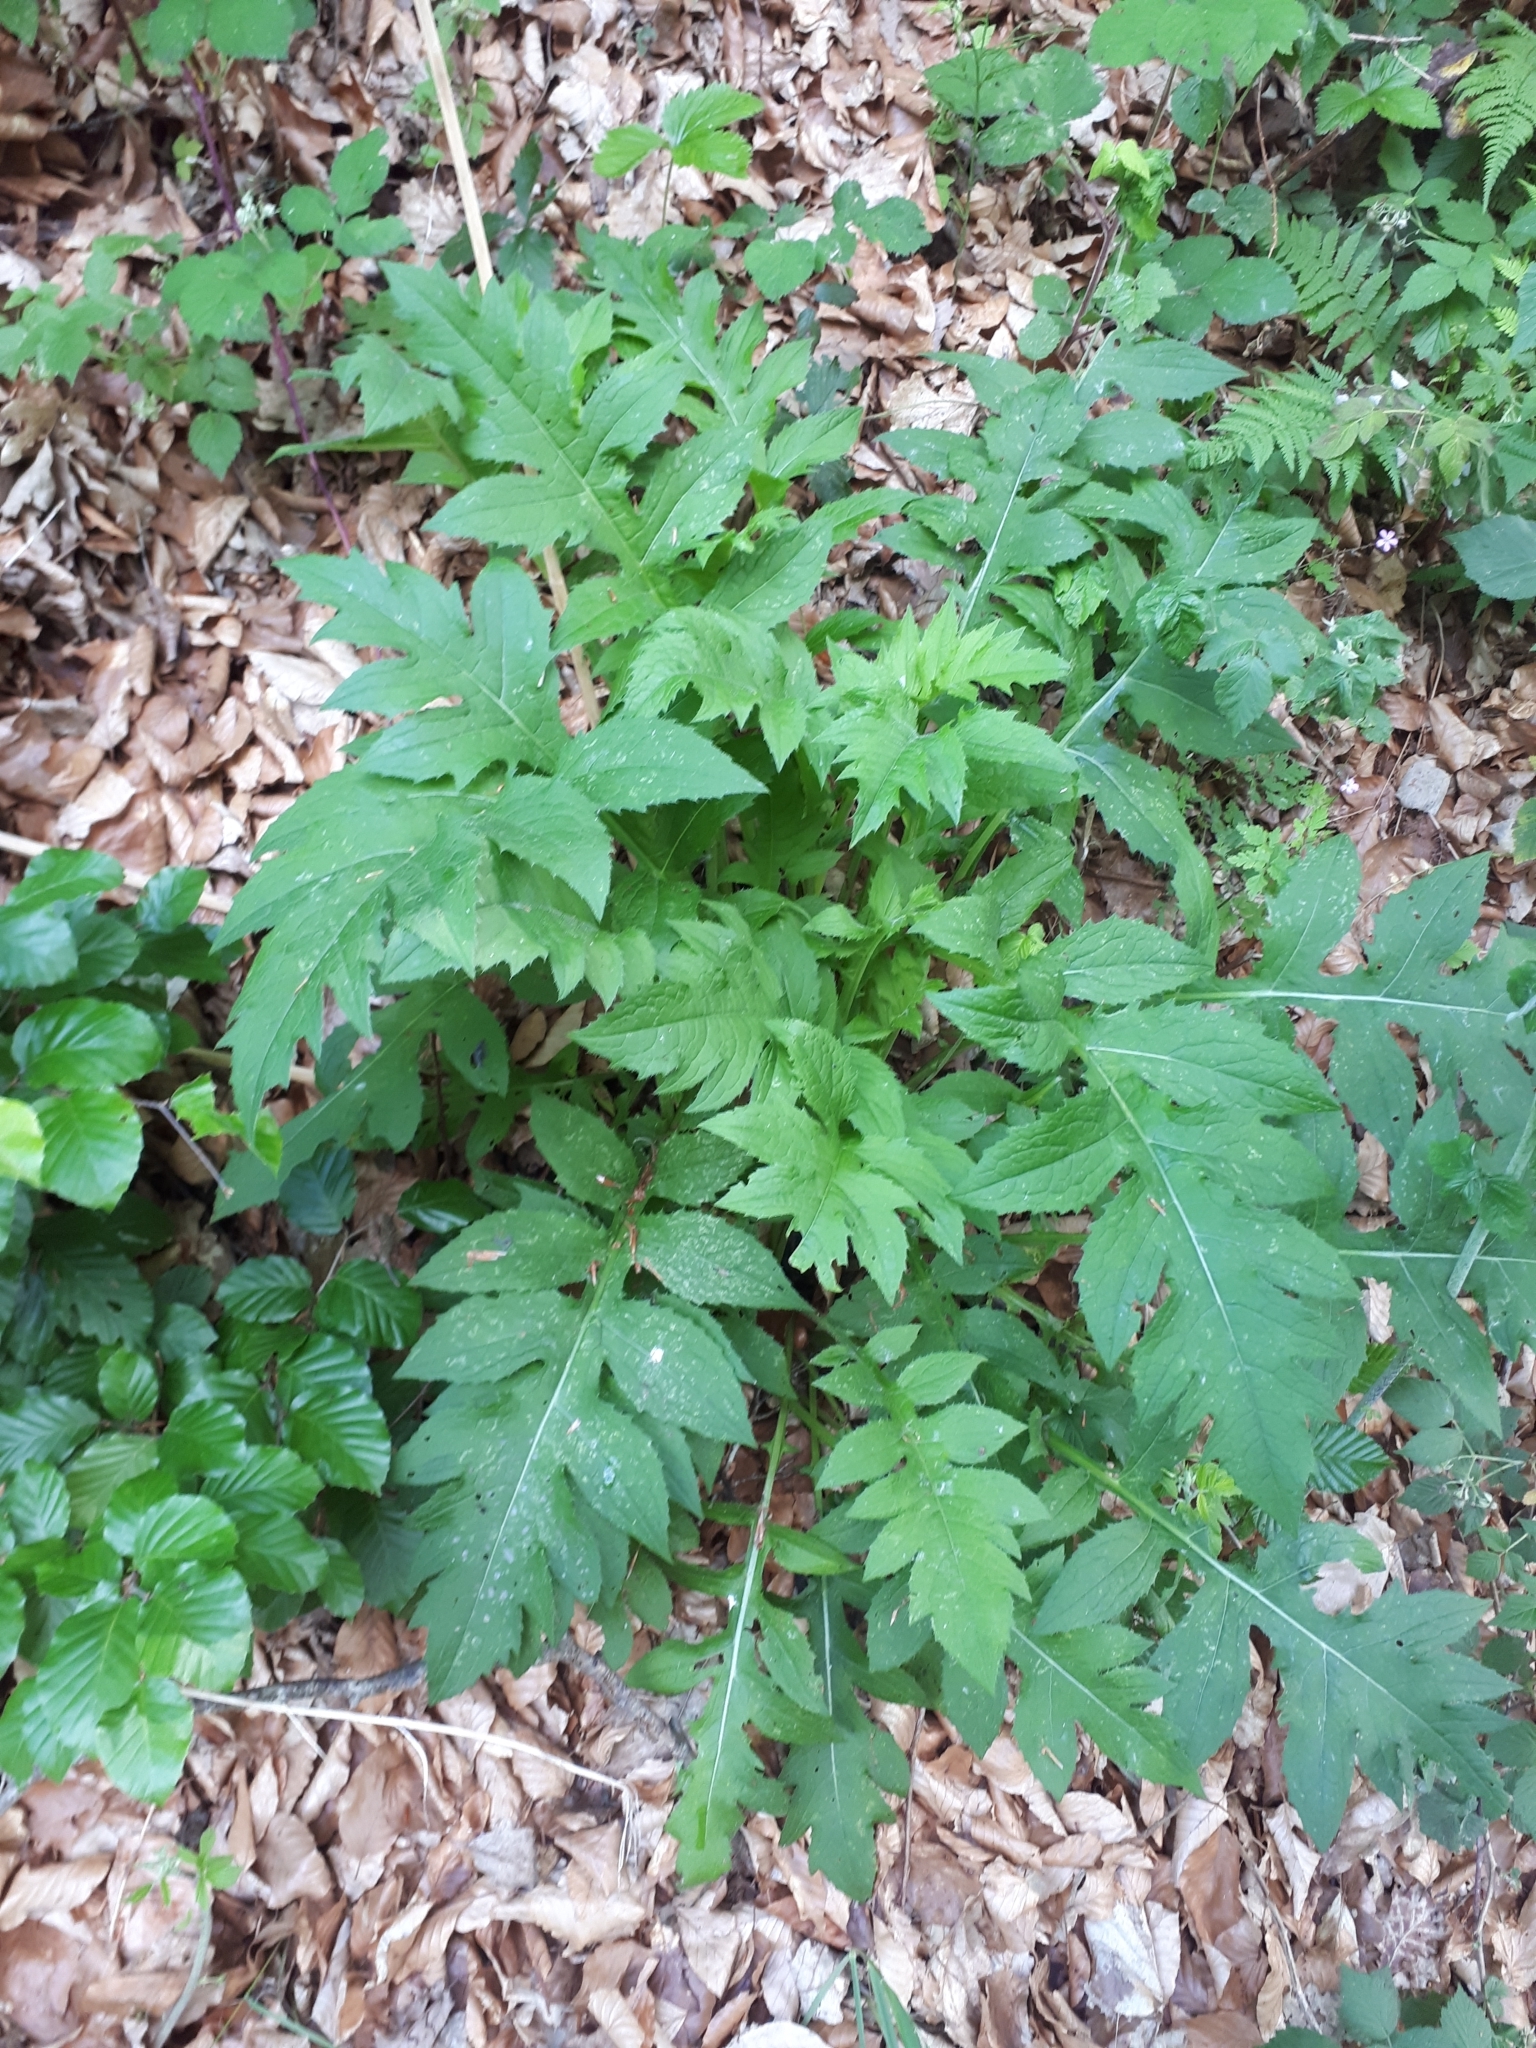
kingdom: Plantae
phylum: Tracheophyta
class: Magnoliopsida
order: Asterales
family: Asteraceae
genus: Cirsium
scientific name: Cirsium oleraceum
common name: Cabbage thistle
